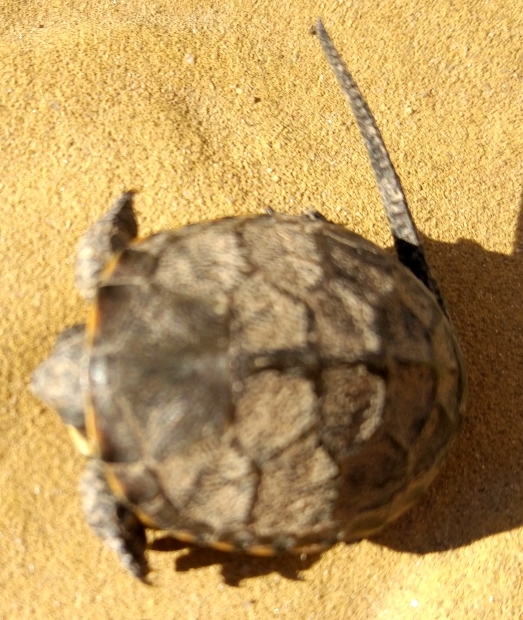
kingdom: Animalia
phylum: Chordata
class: Testudines
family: Emydidae
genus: Emys
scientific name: Emys orbicularis
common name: European pond turtle
